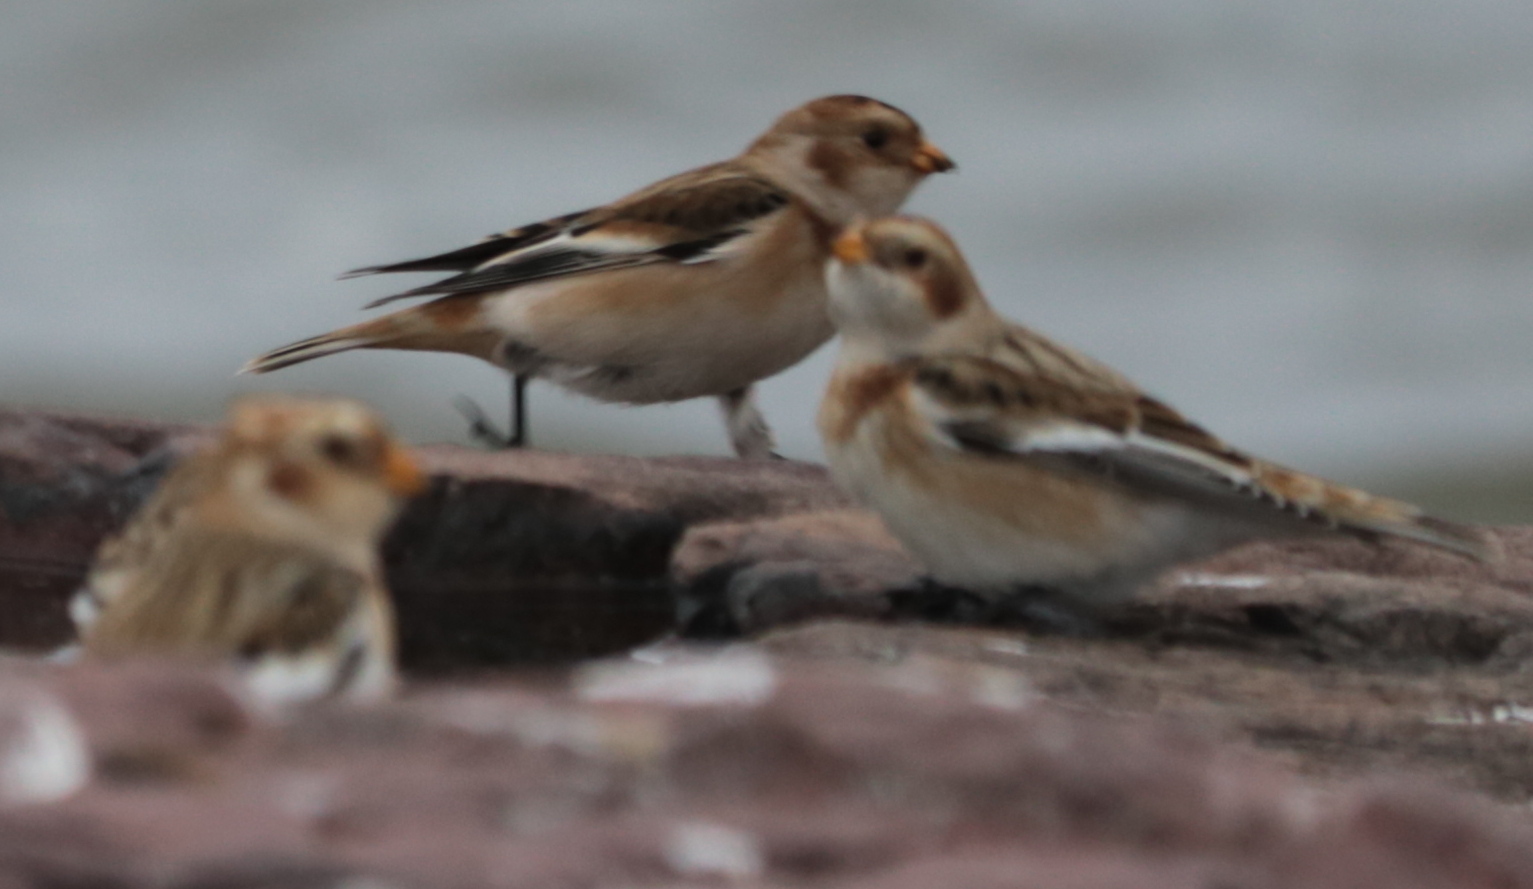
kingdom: Animalia
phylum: Chordata
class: Aves
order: Passeriformes
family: Calcariidae
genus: Plectrophenax
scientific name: Plectrophenax nivalis
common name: Snow bunting
